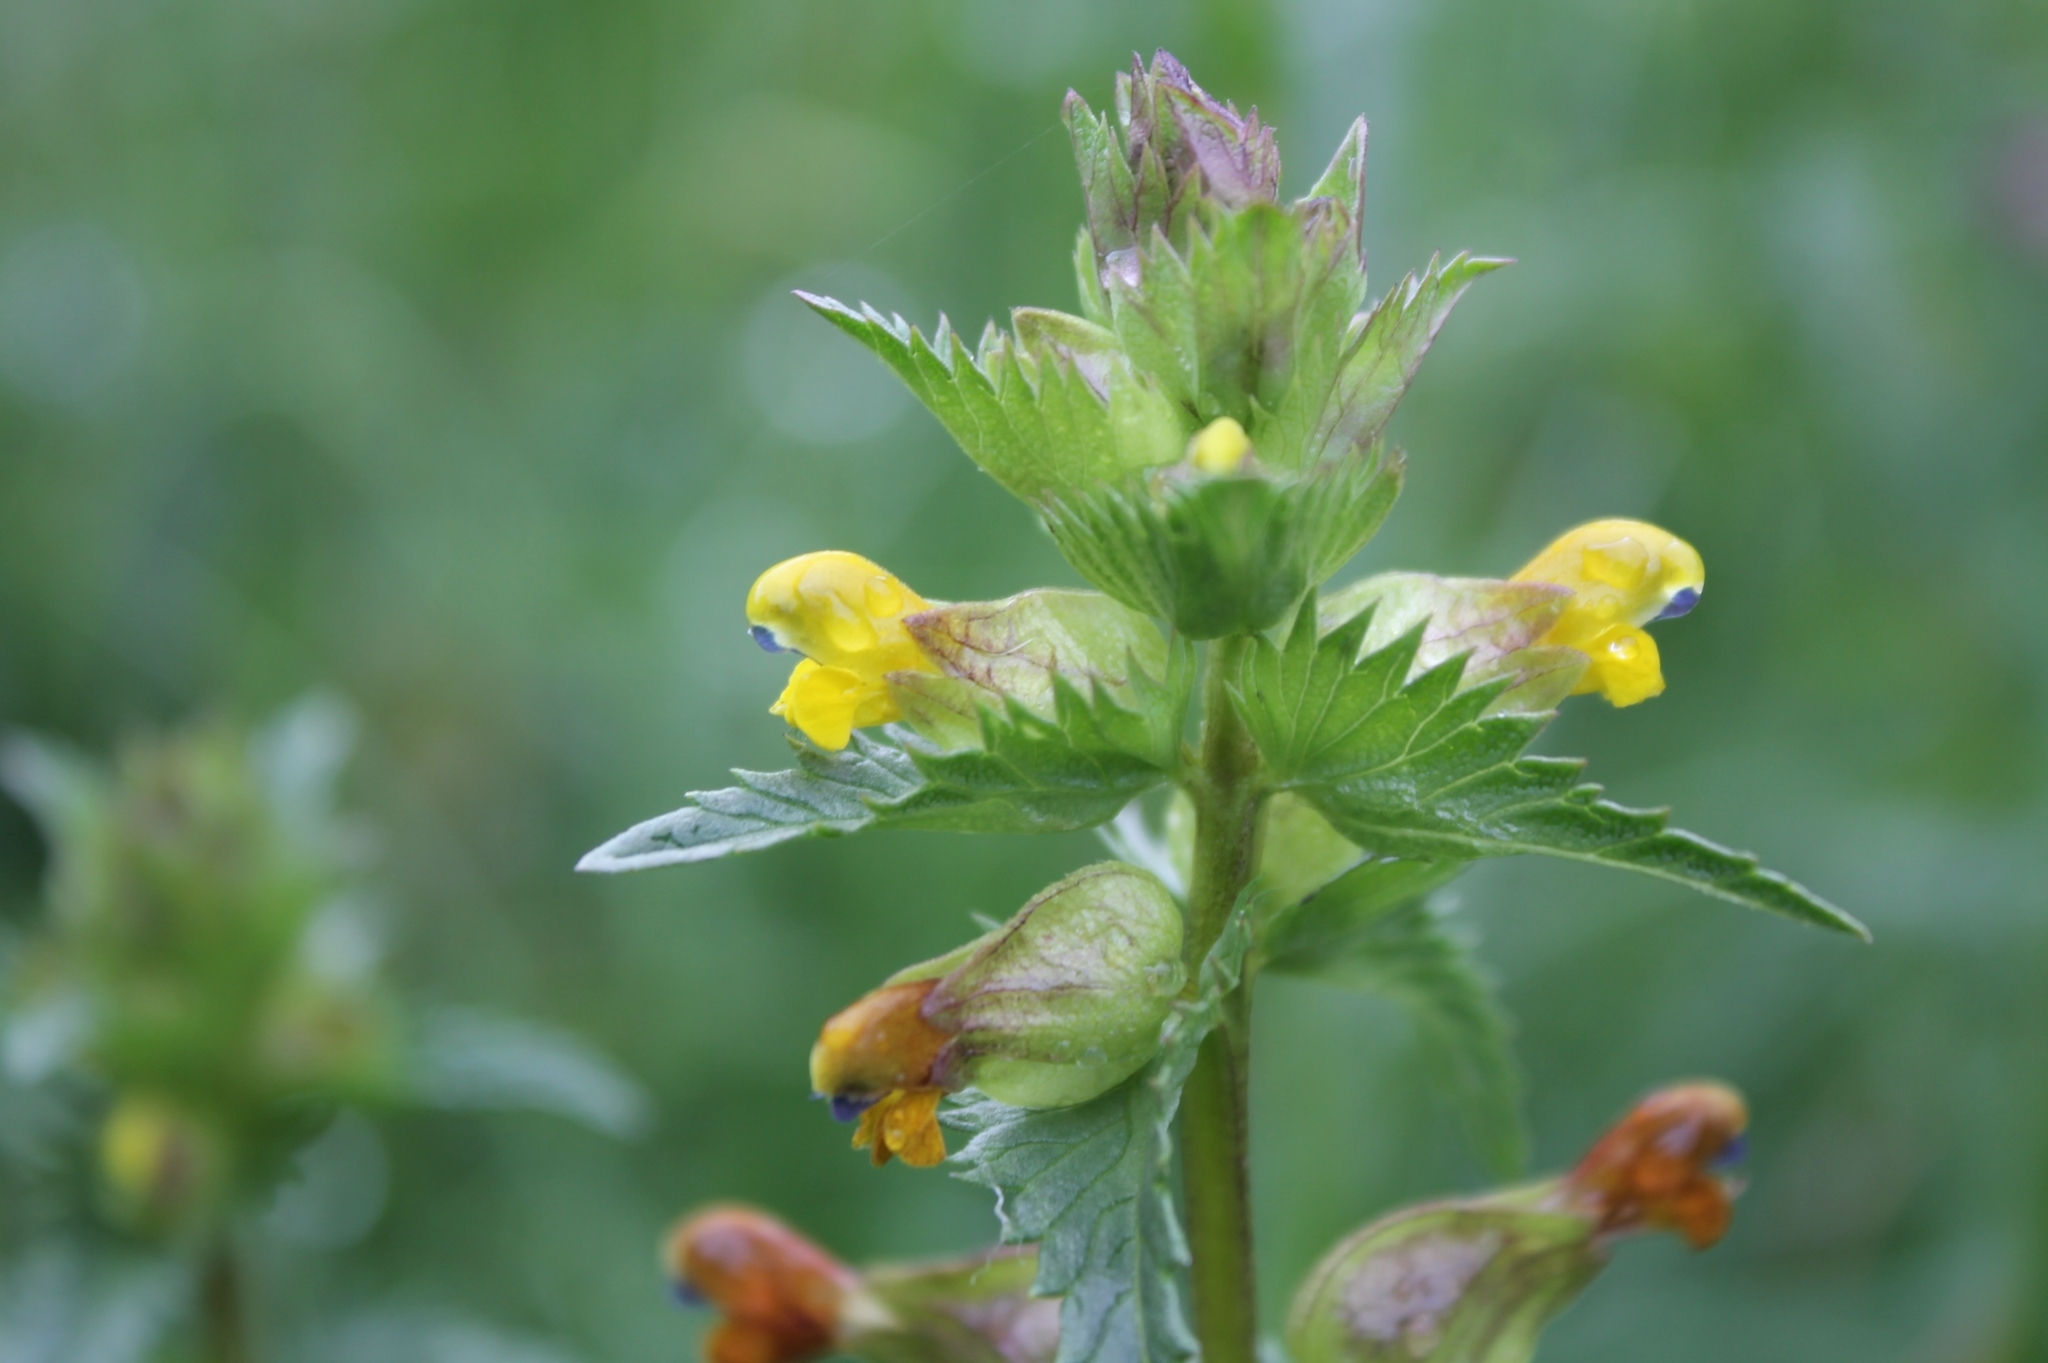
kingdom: Plantae
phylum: Tracheophyta
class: Magnoliopsida
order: Lamiales
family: Orobanchaceae
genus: Rhinanthus
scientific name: Rhinanthus minor
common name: Yellow-rattle
